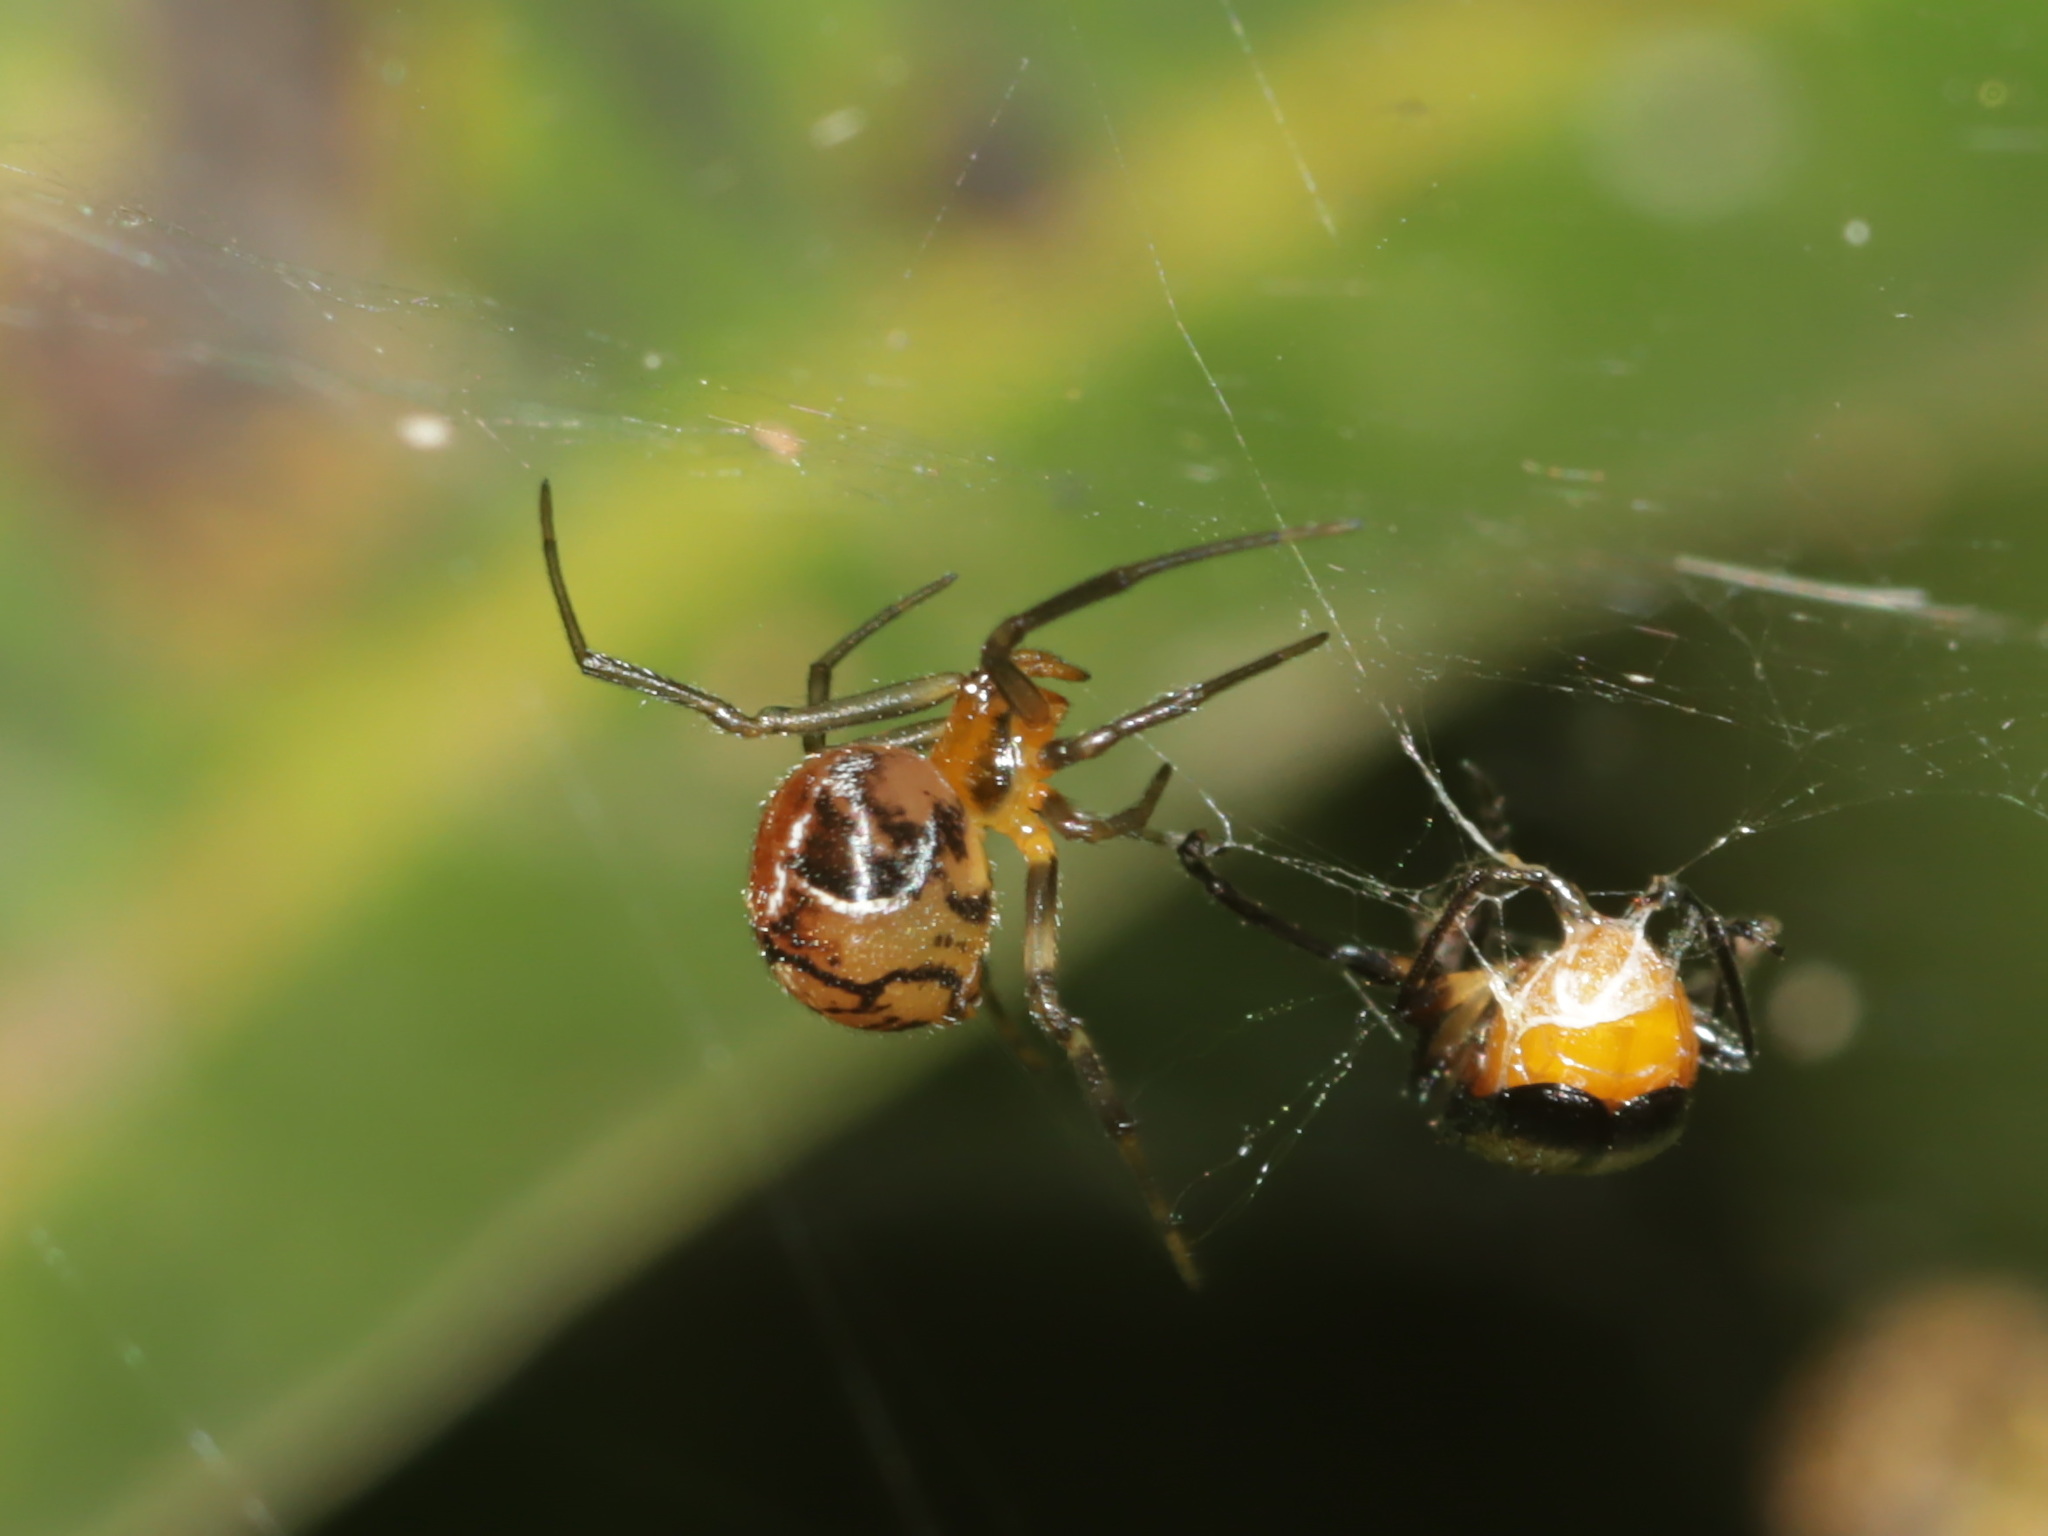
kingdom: Animalia
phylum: Arthropoda
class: Arachnida
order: Araneae
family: Theridiidae
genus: Nihonhimea
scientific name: Nihonhimea mundula
